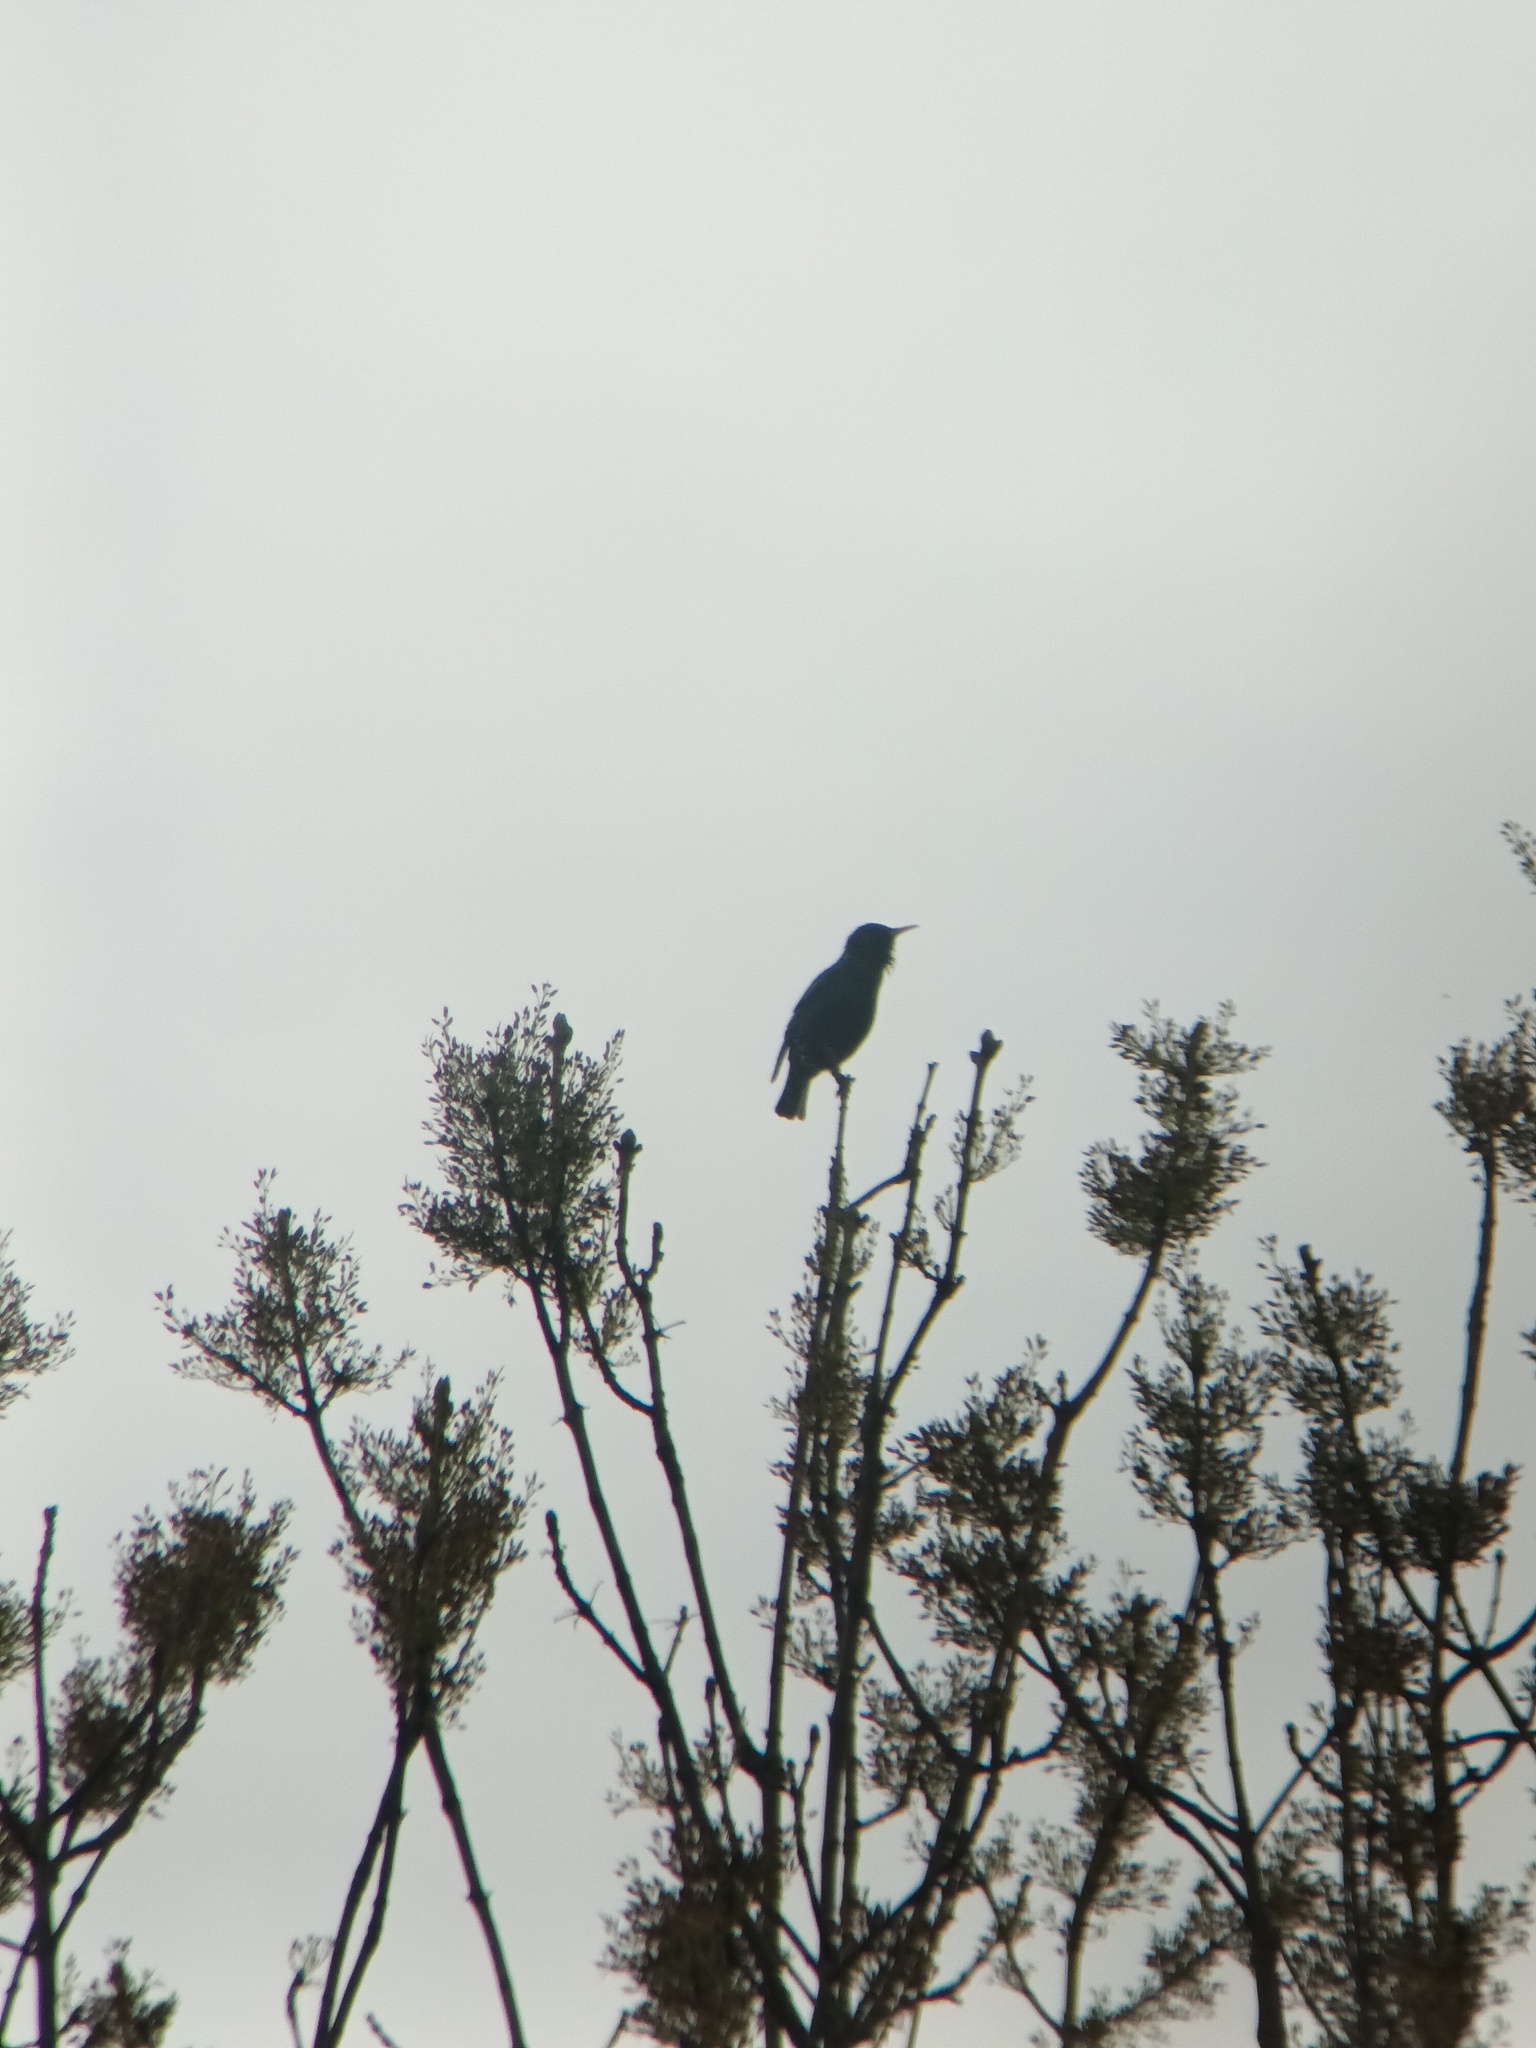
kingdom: Animalia
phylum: Chordata
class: Aves
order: Passeriformes
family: Sturnidae
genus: Sturnus
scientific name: Sturnus vulgaris
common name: Common starling
